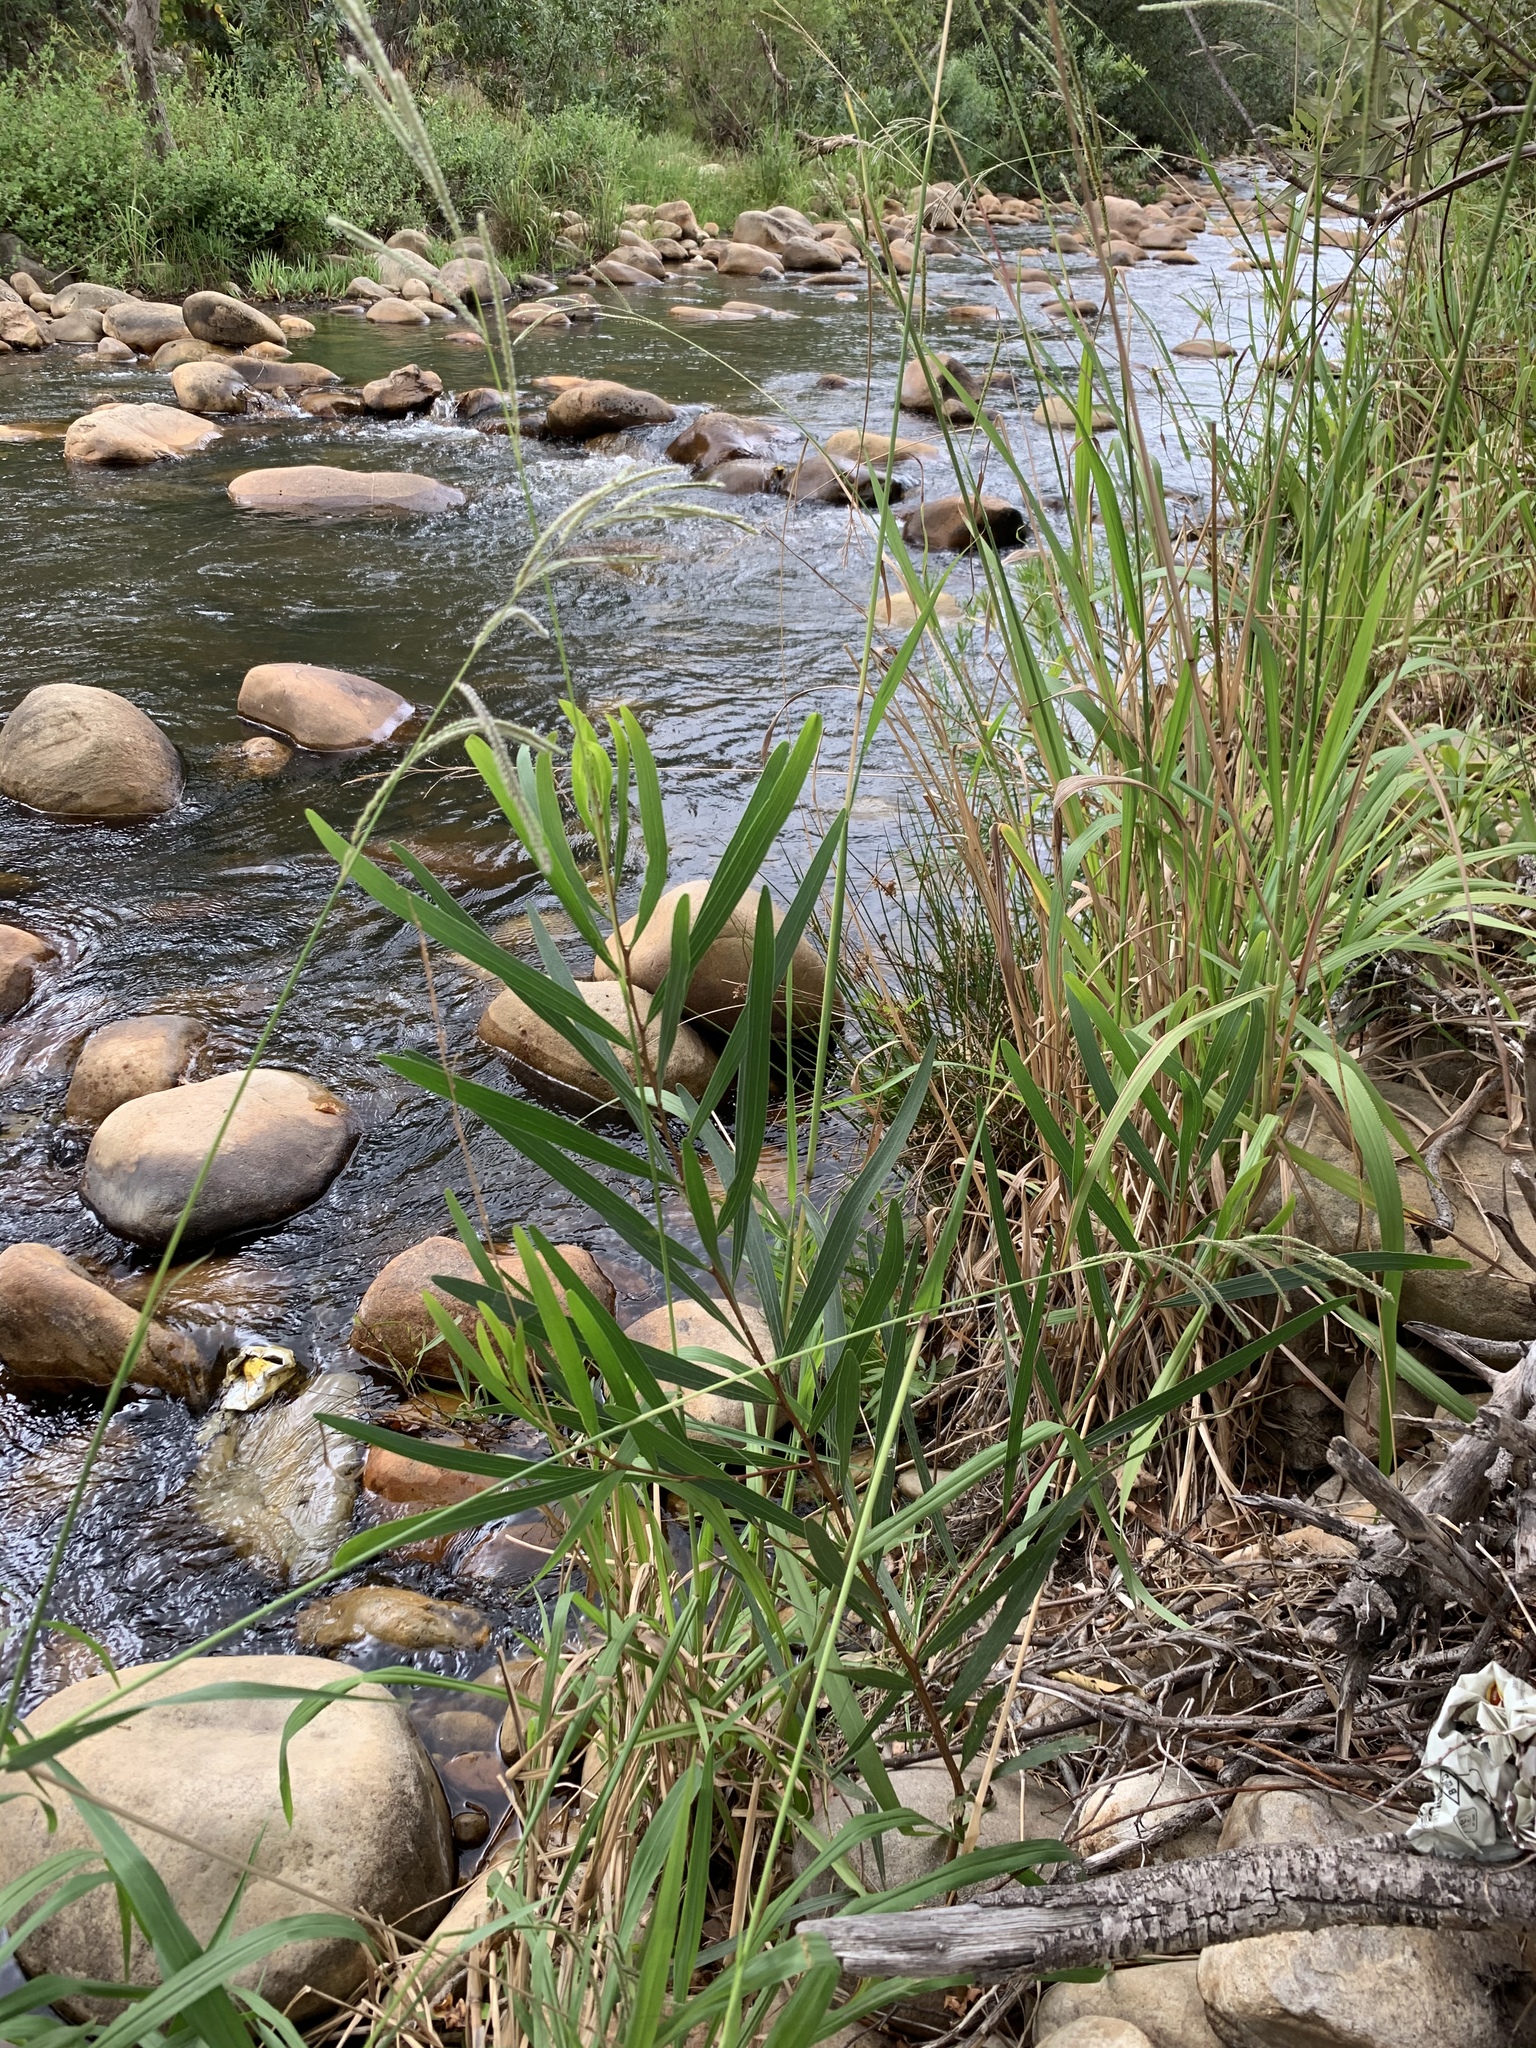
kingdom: Plantae
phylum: Tracheophyta
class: Magnoliopsida
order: Fabales
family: Fabaceae
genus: Acacia
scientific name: Acacia longifolia
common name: Sydney golden wattle
